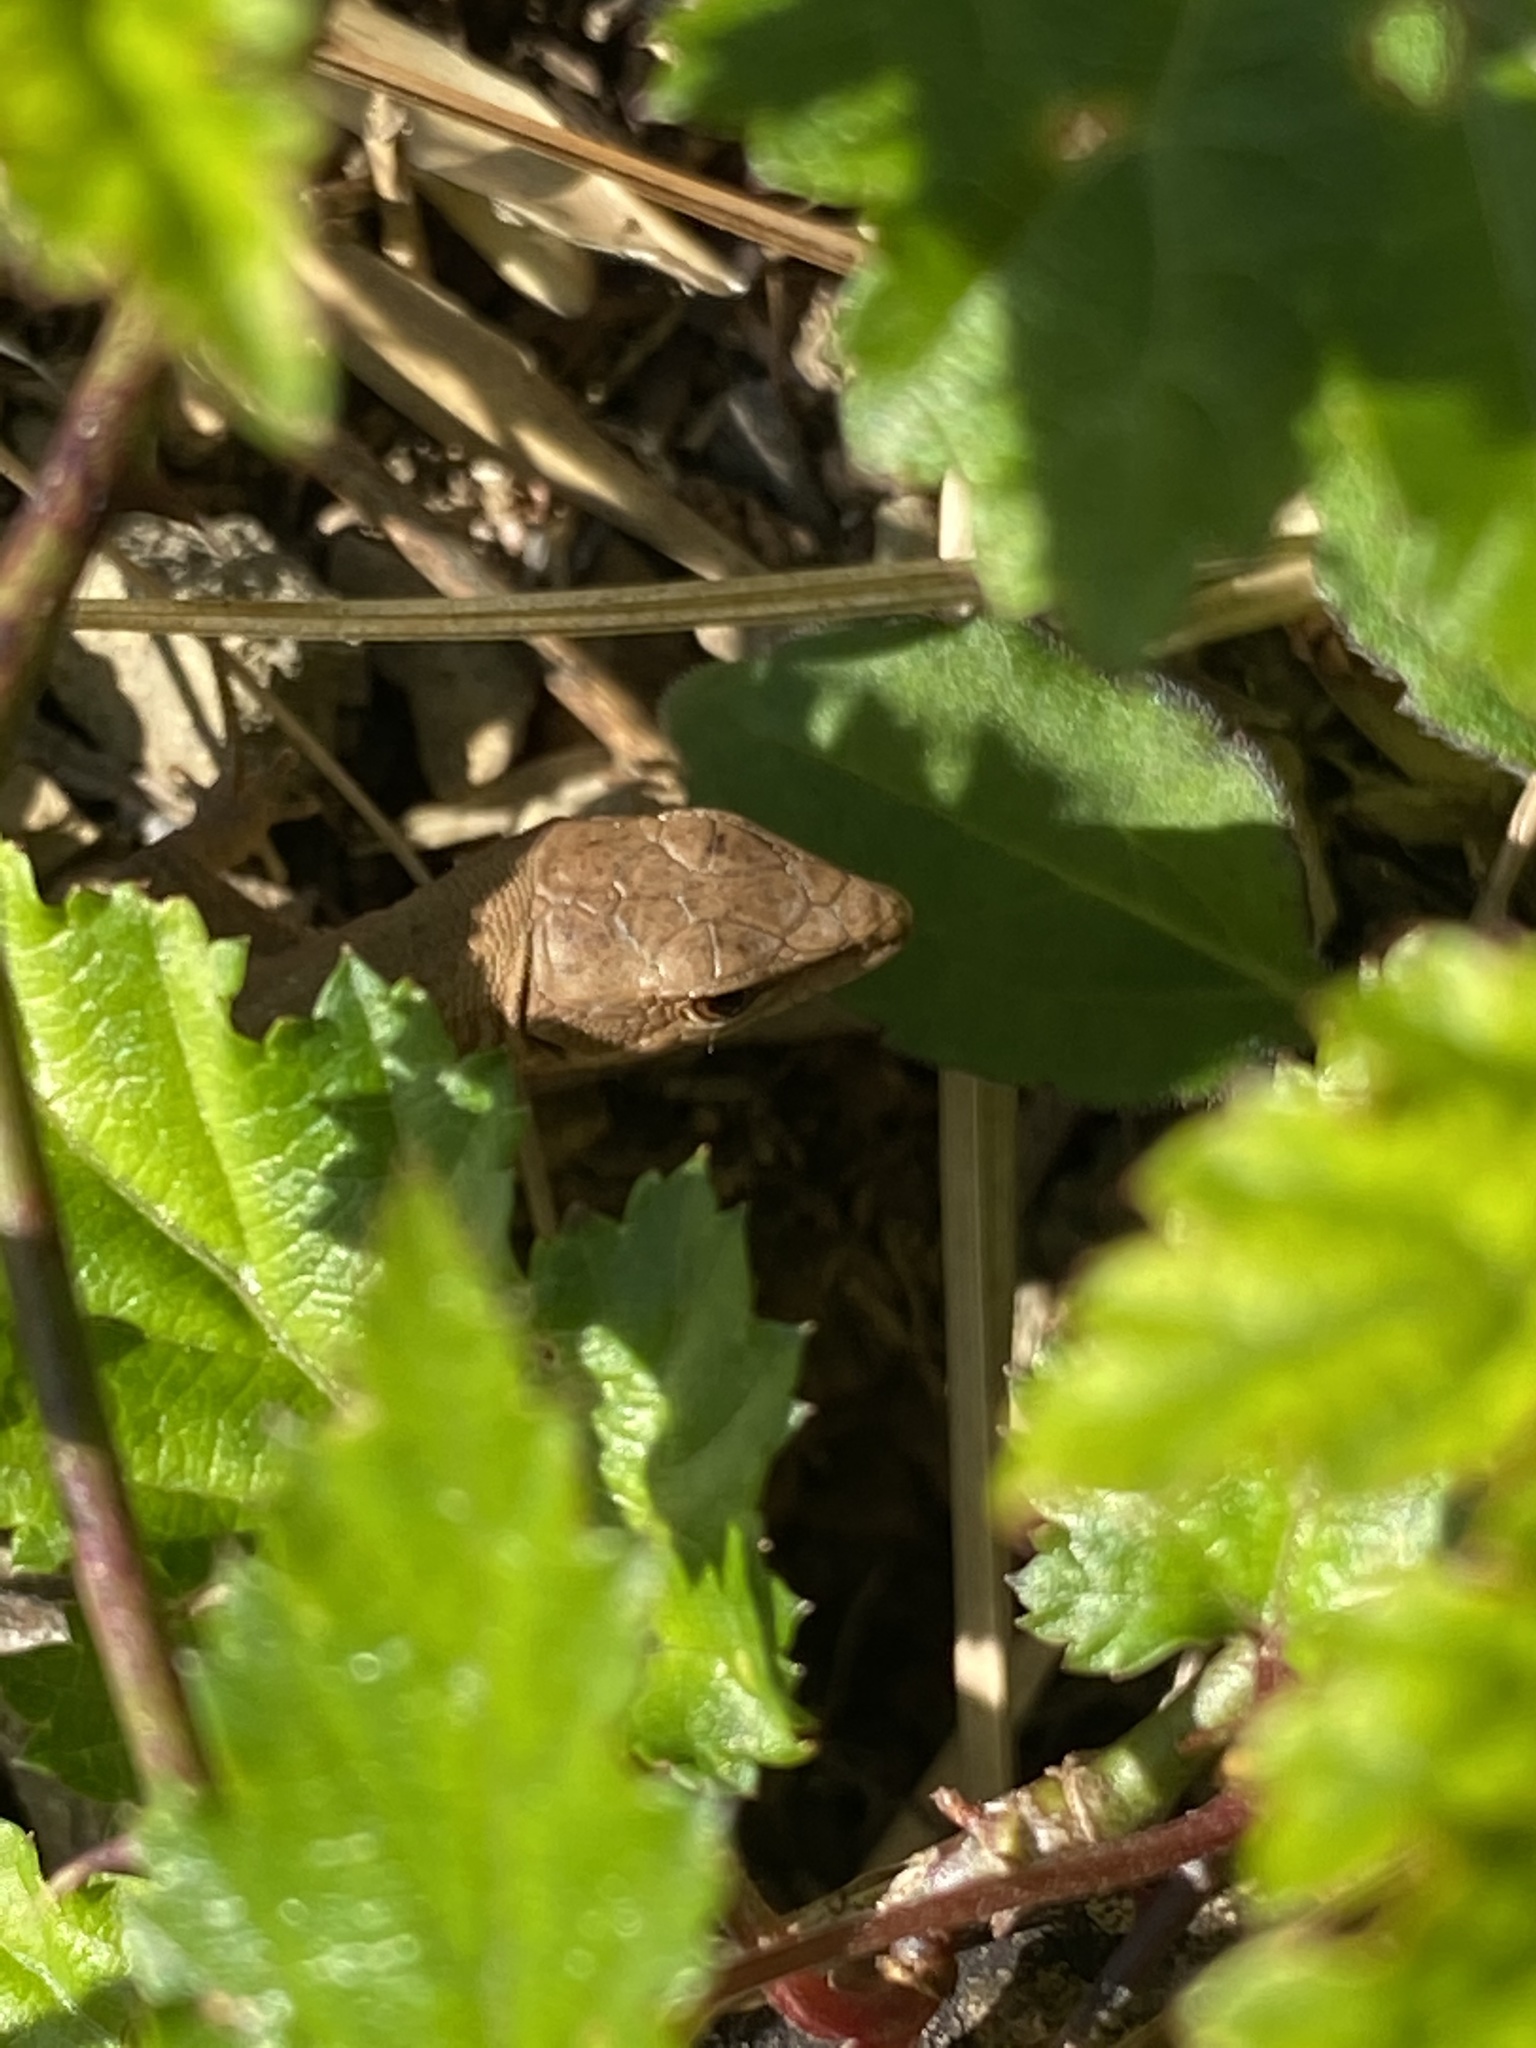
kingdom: Animalia
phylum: Chordata
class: Squamata
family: Lacertidae
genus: Takydromus
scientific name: Takydromus tachydromoides
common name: Japanese grass lizard
